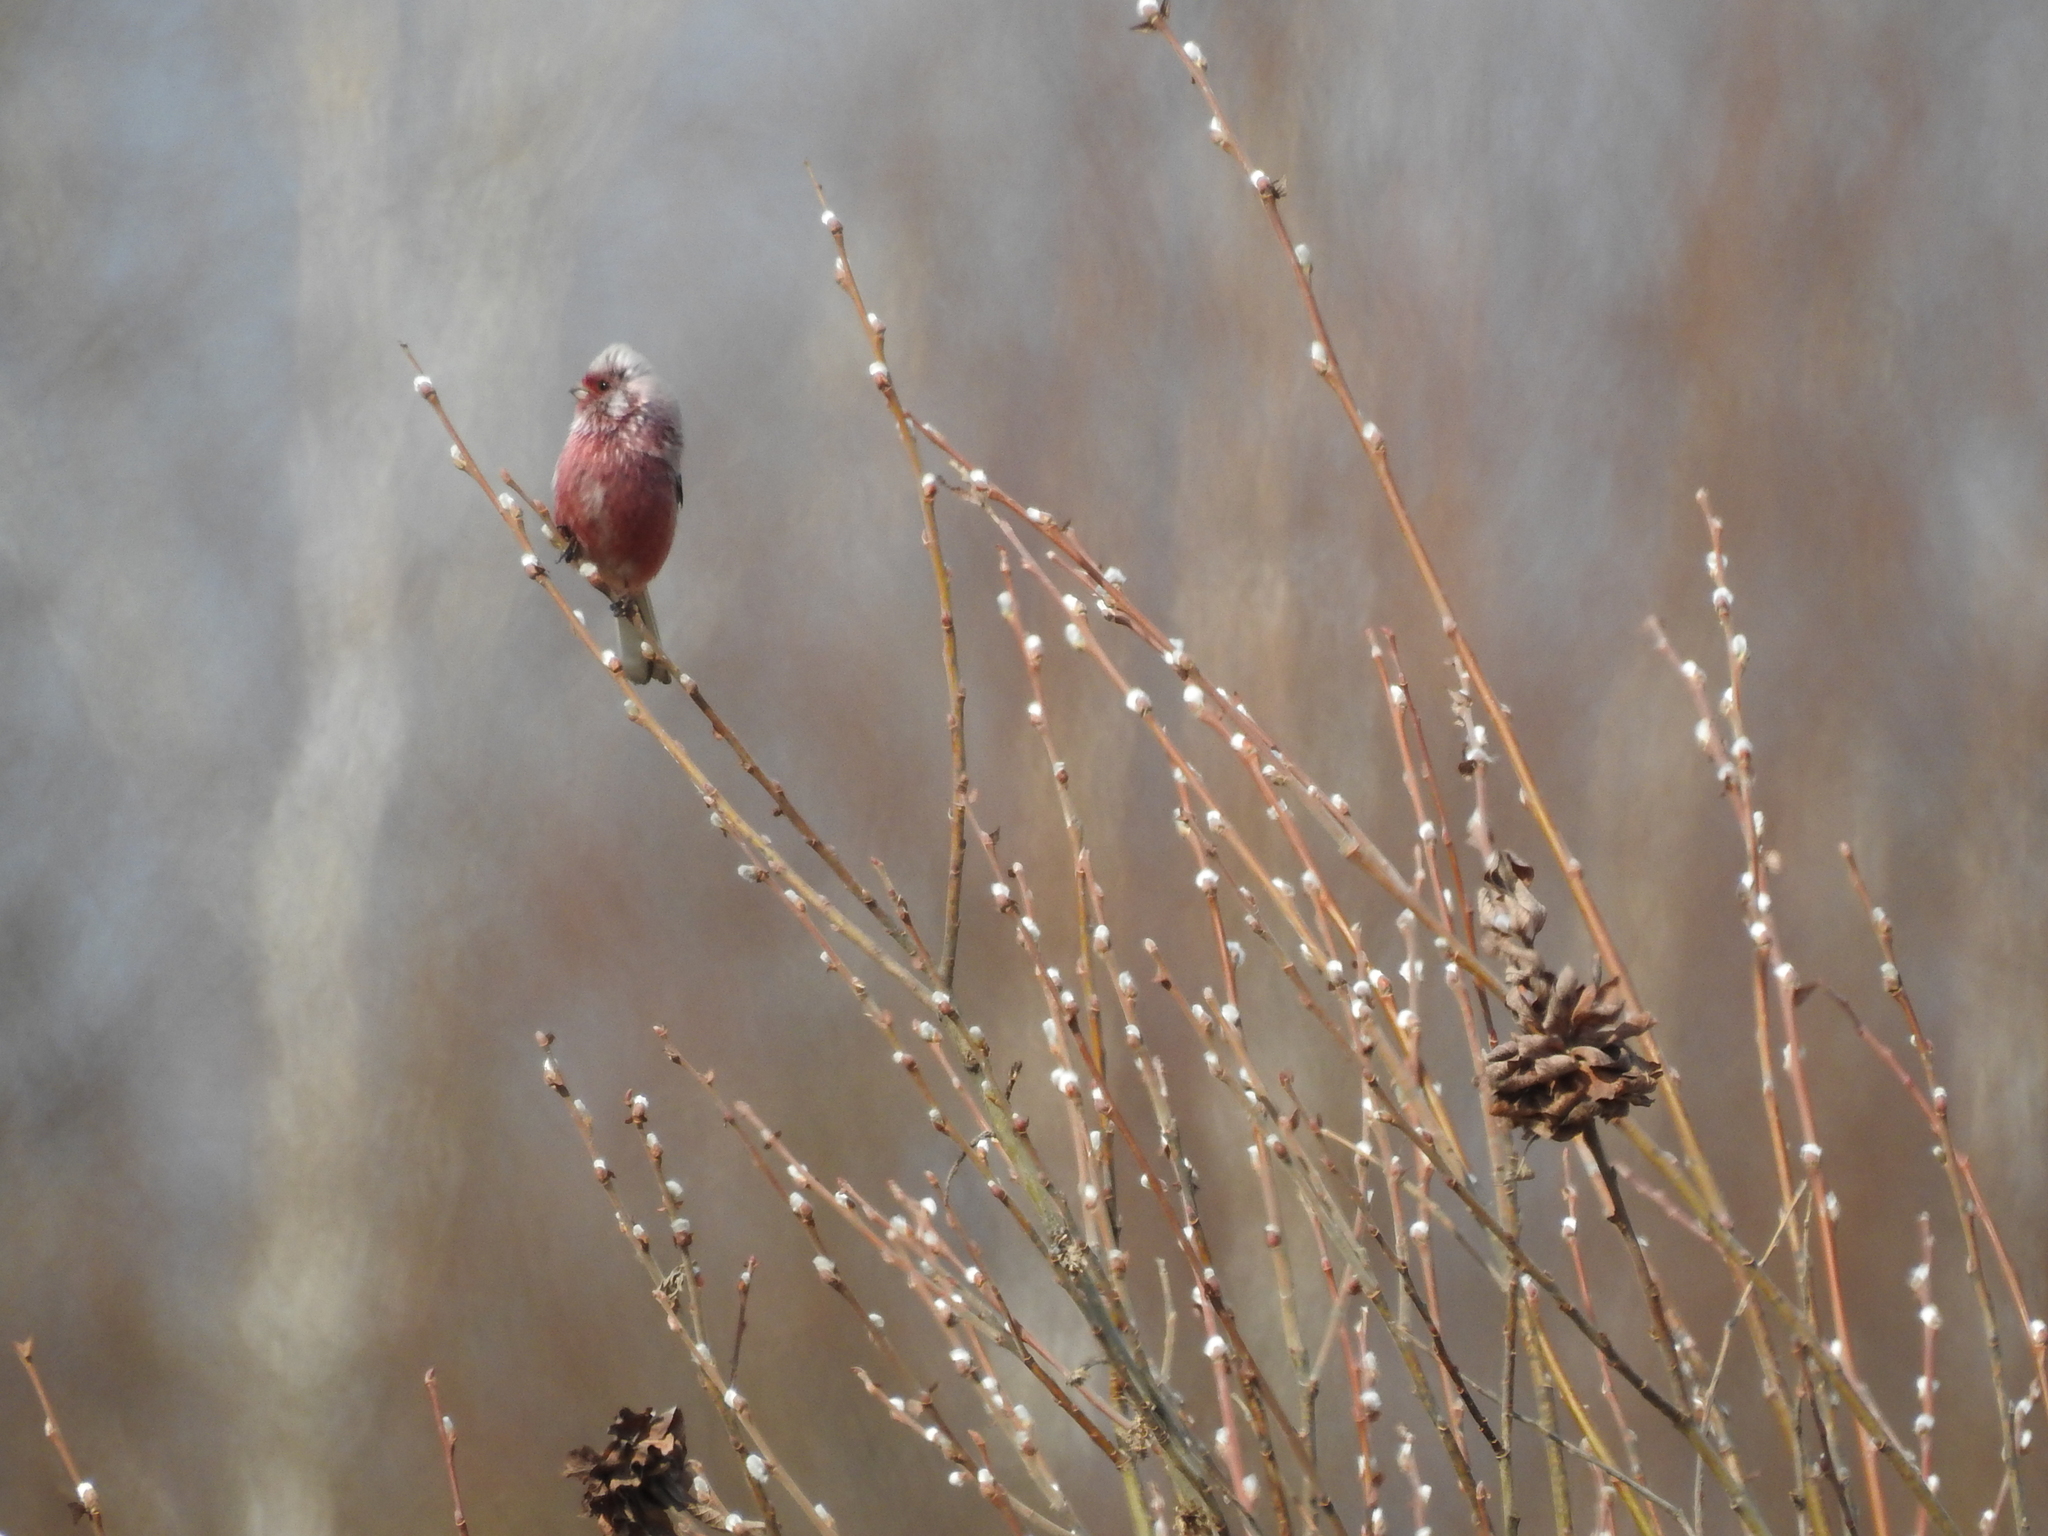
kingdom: Animalia
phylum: Chordata
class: Aves
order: Passeriformes
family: Fringillidae
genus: Carpodacus
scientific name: Carpodacus sibiricus
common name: Long-tailed rosefinch
